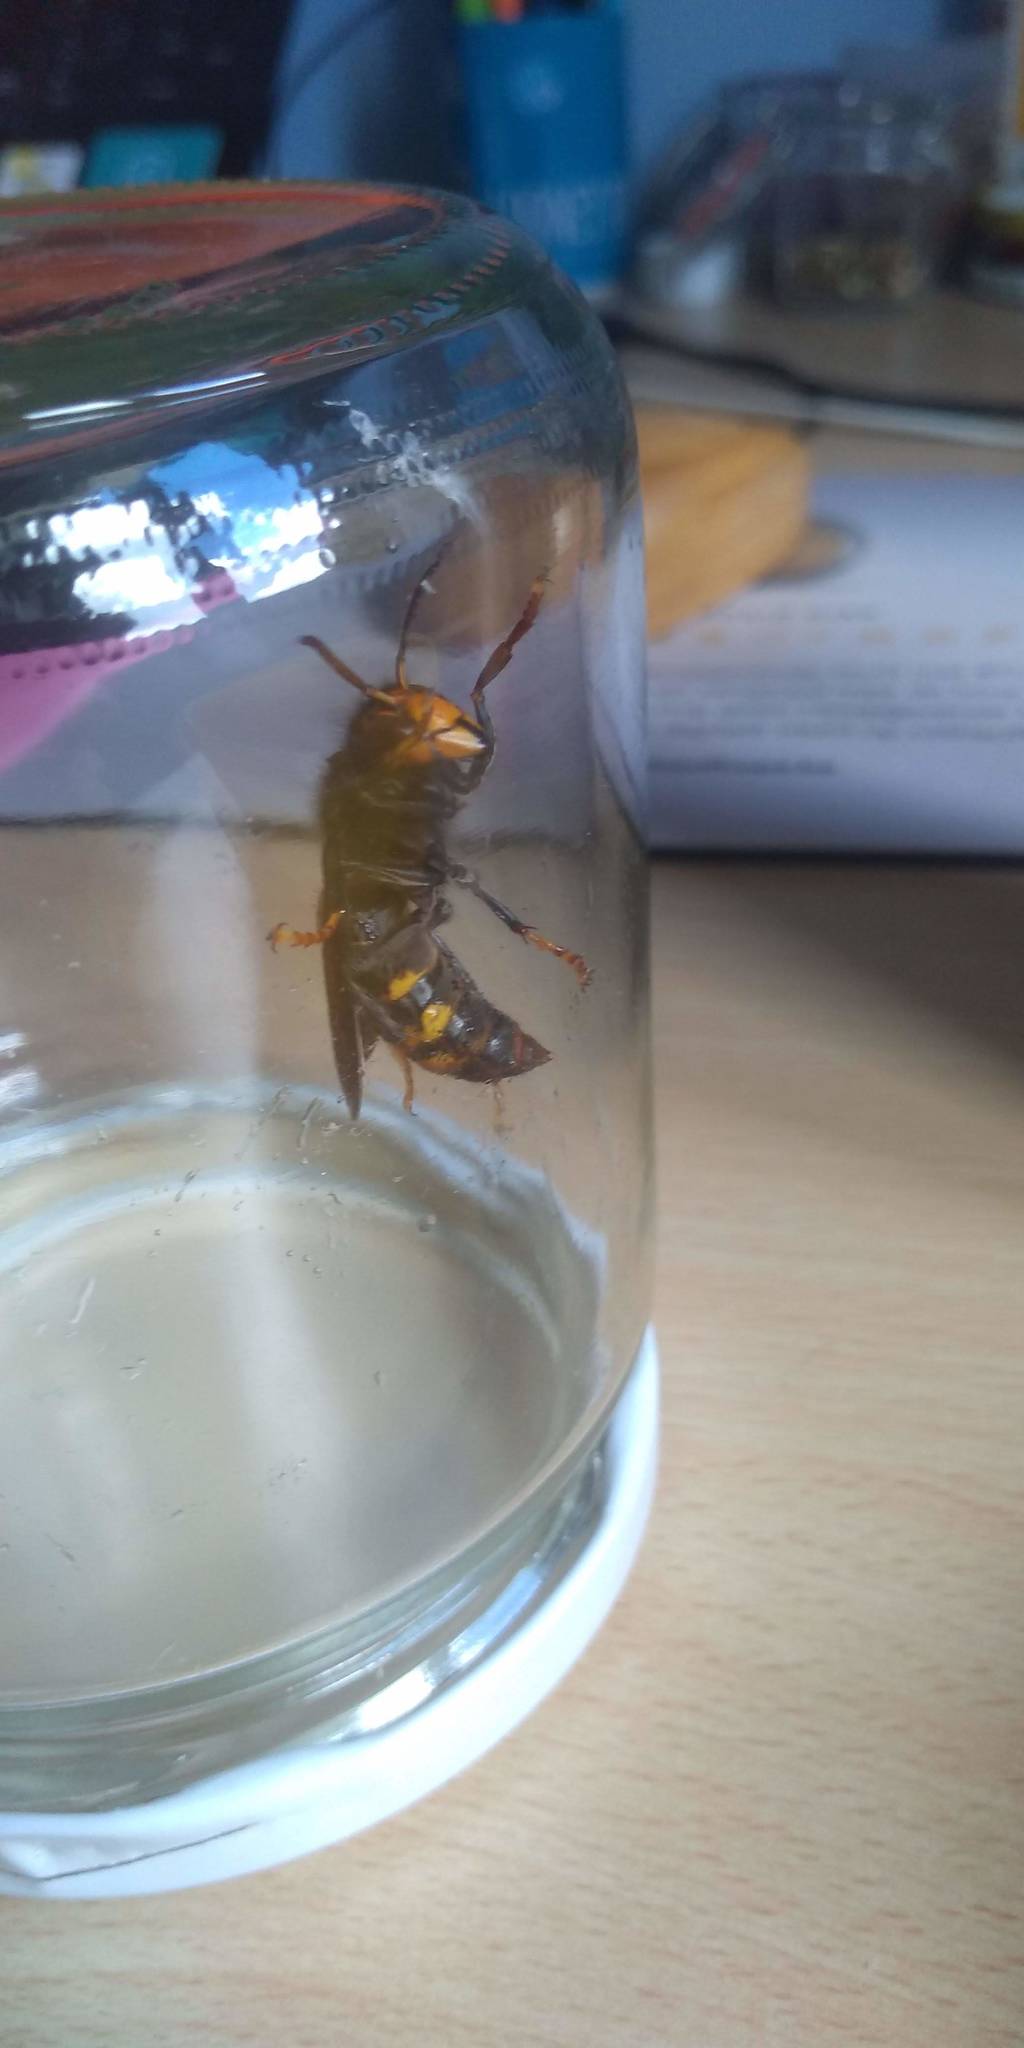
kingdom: Animalia
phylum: Arthropoda
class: Insecta
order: Hymenoptera
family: Vespidae
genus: Vespa
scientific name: Vespa velutina
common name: Asian hornet
